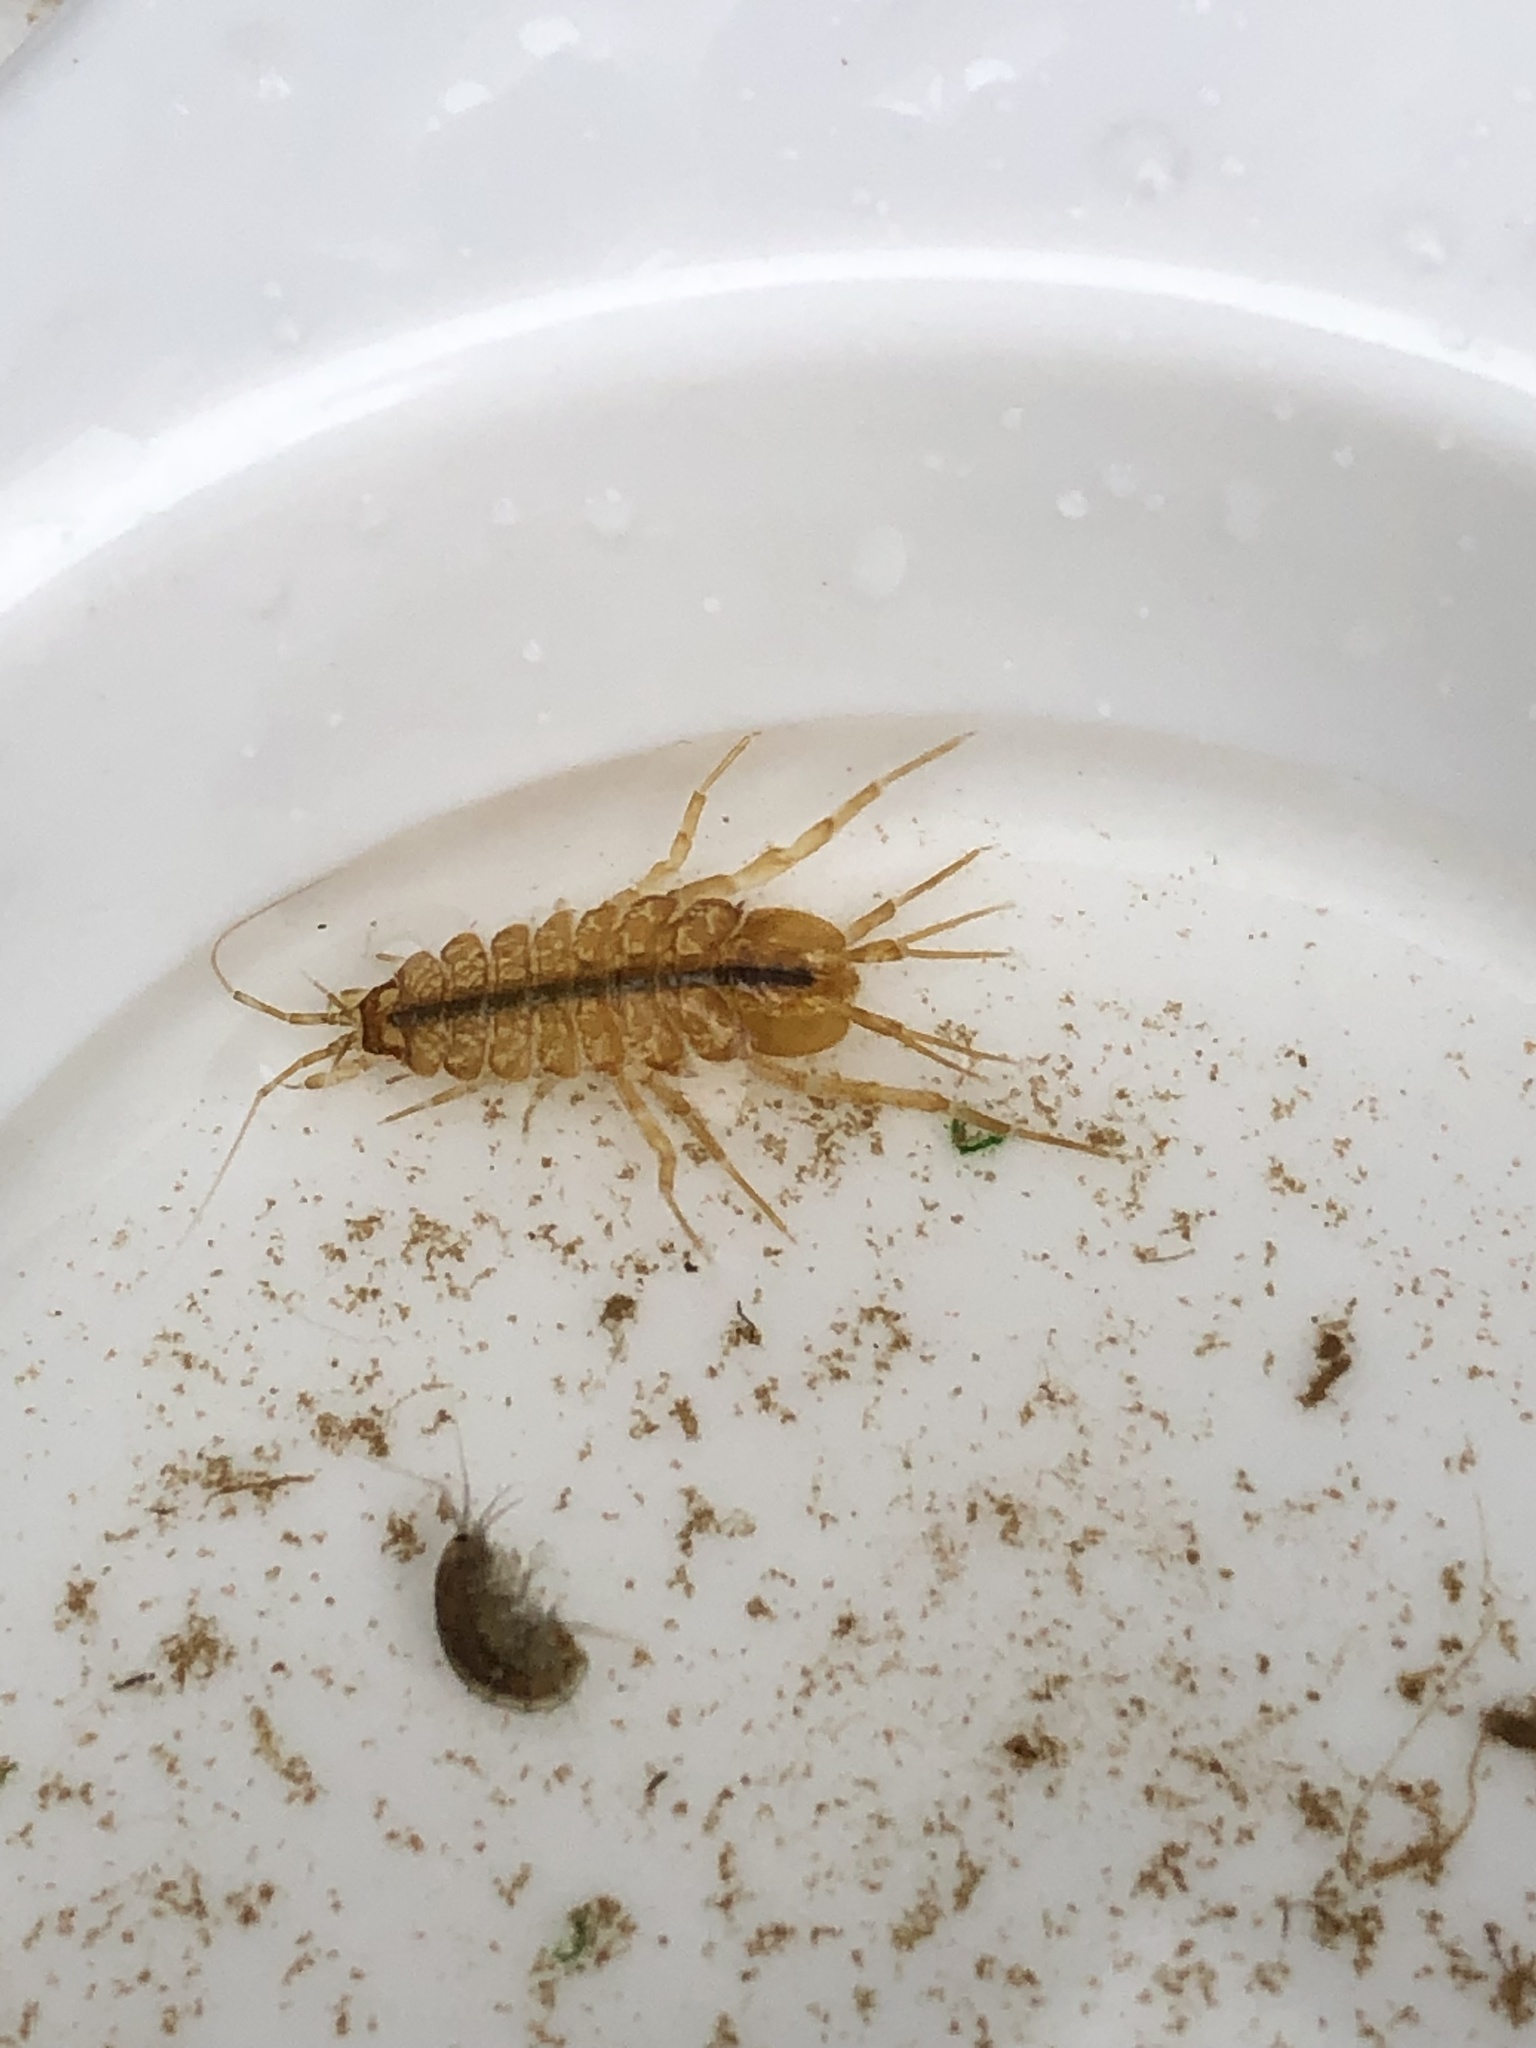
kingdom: Animalia
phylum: Arthropoda
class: Malacostraca
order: Isopoda
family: Asellidae
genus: Asellus
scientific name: Asellus aquaticus
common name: Water hog lice/slaters
